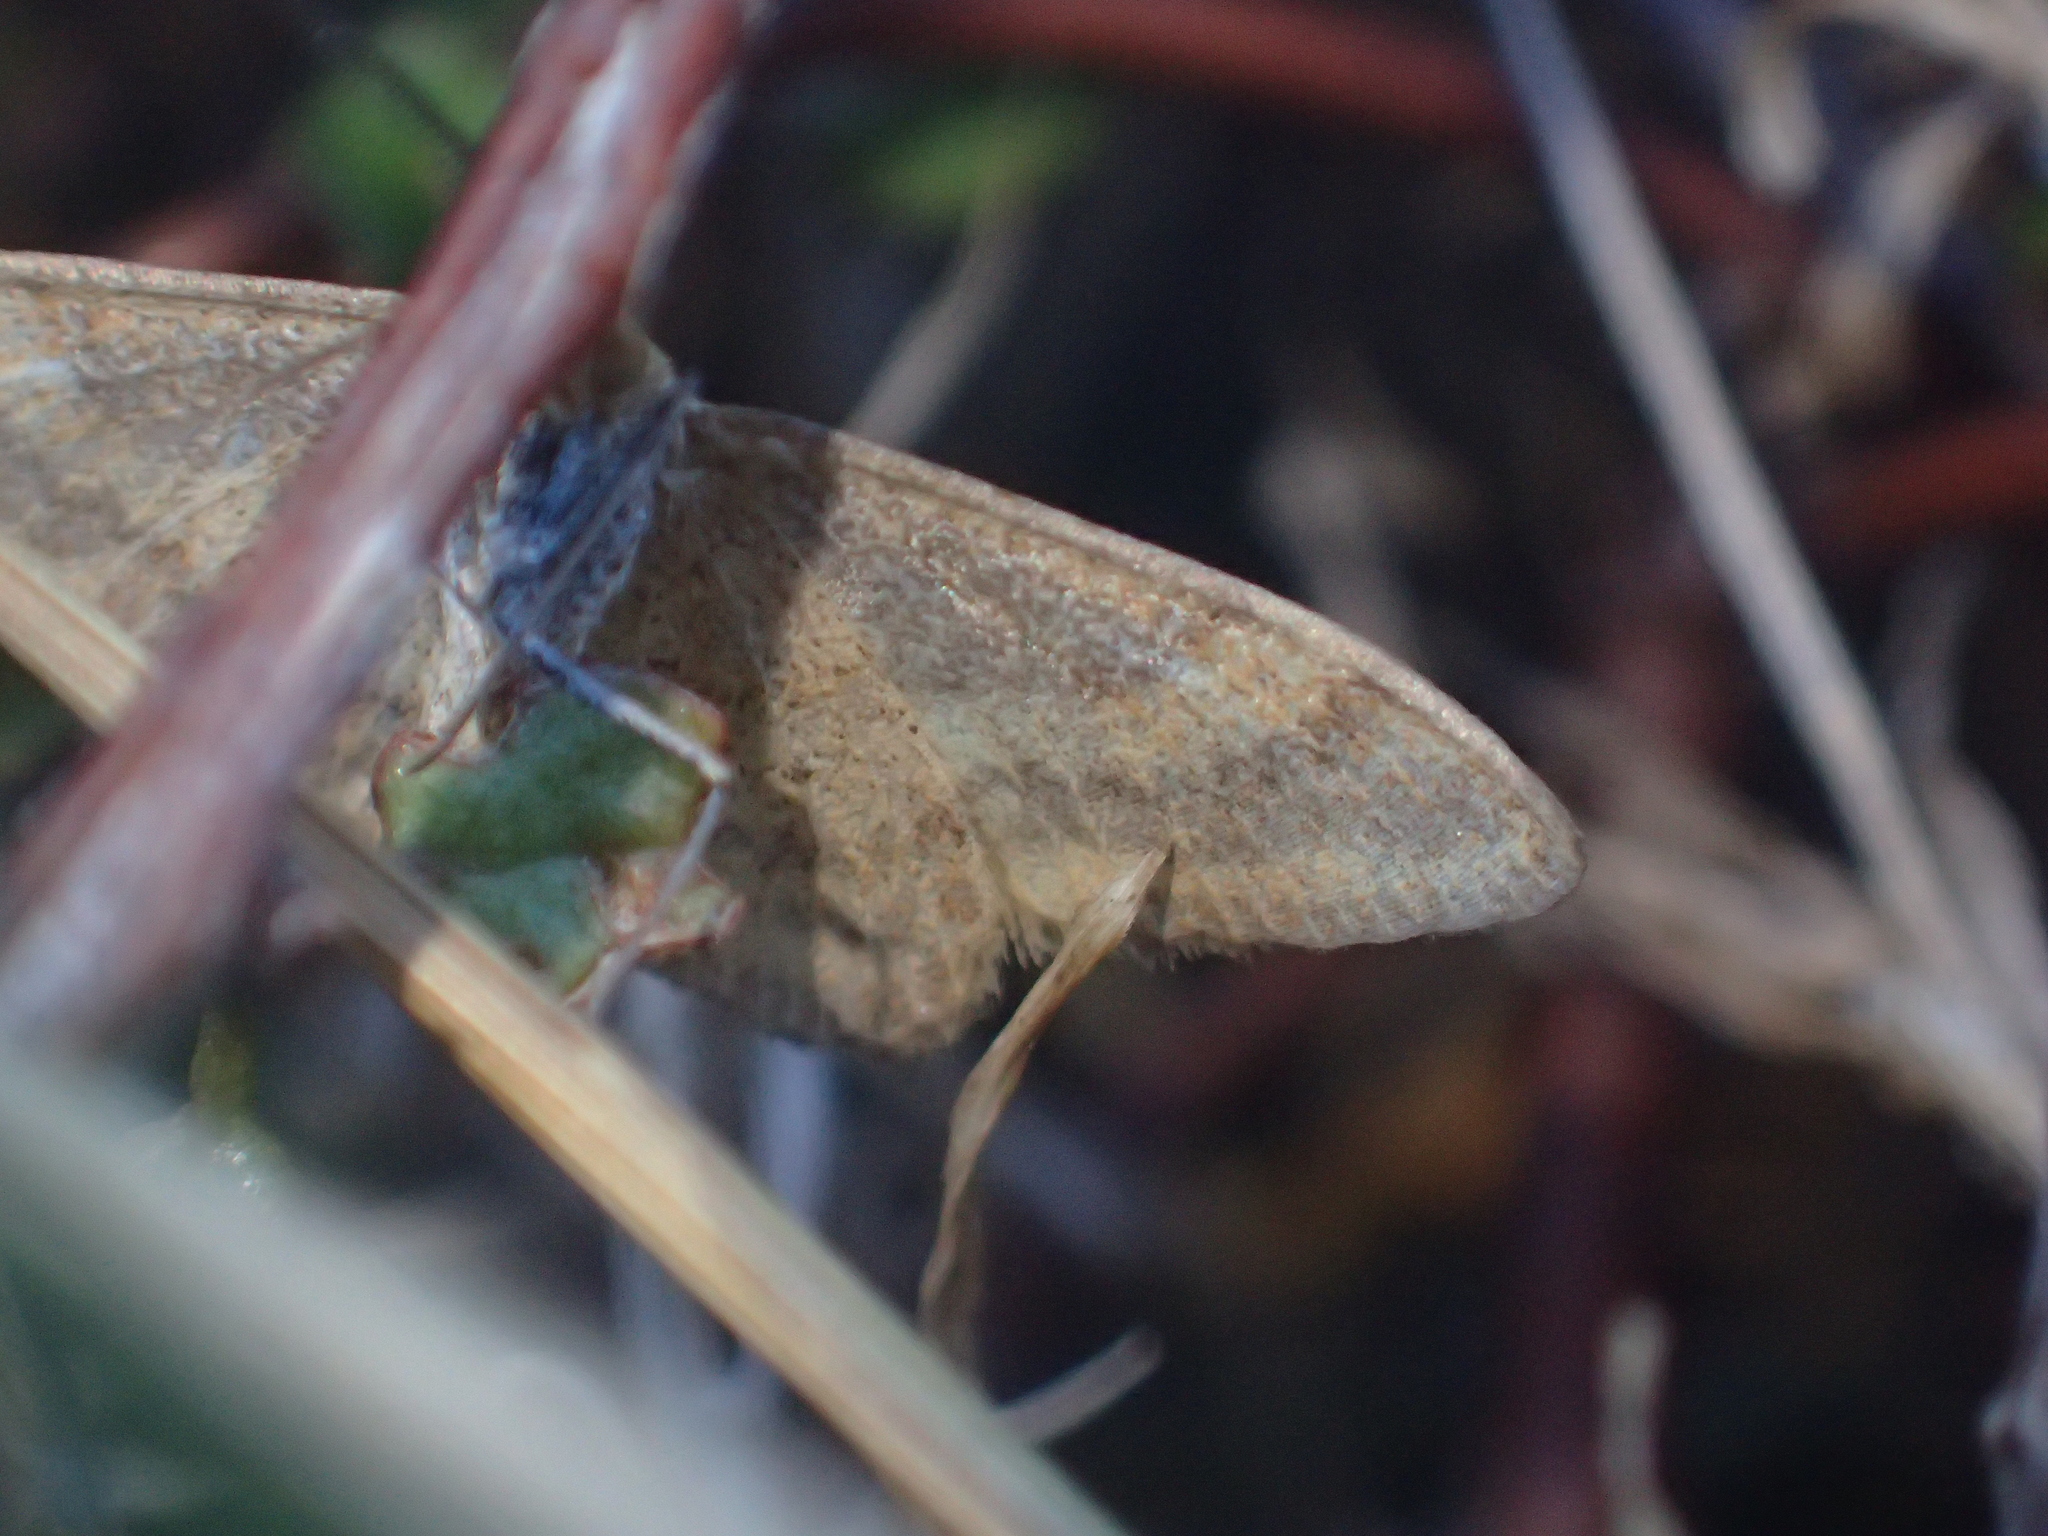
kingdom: Animalia
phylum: Arthropoda
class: Insecta
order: Lepidoptera
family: Geometridae
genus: Scopula
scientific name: Scopula rubraria
